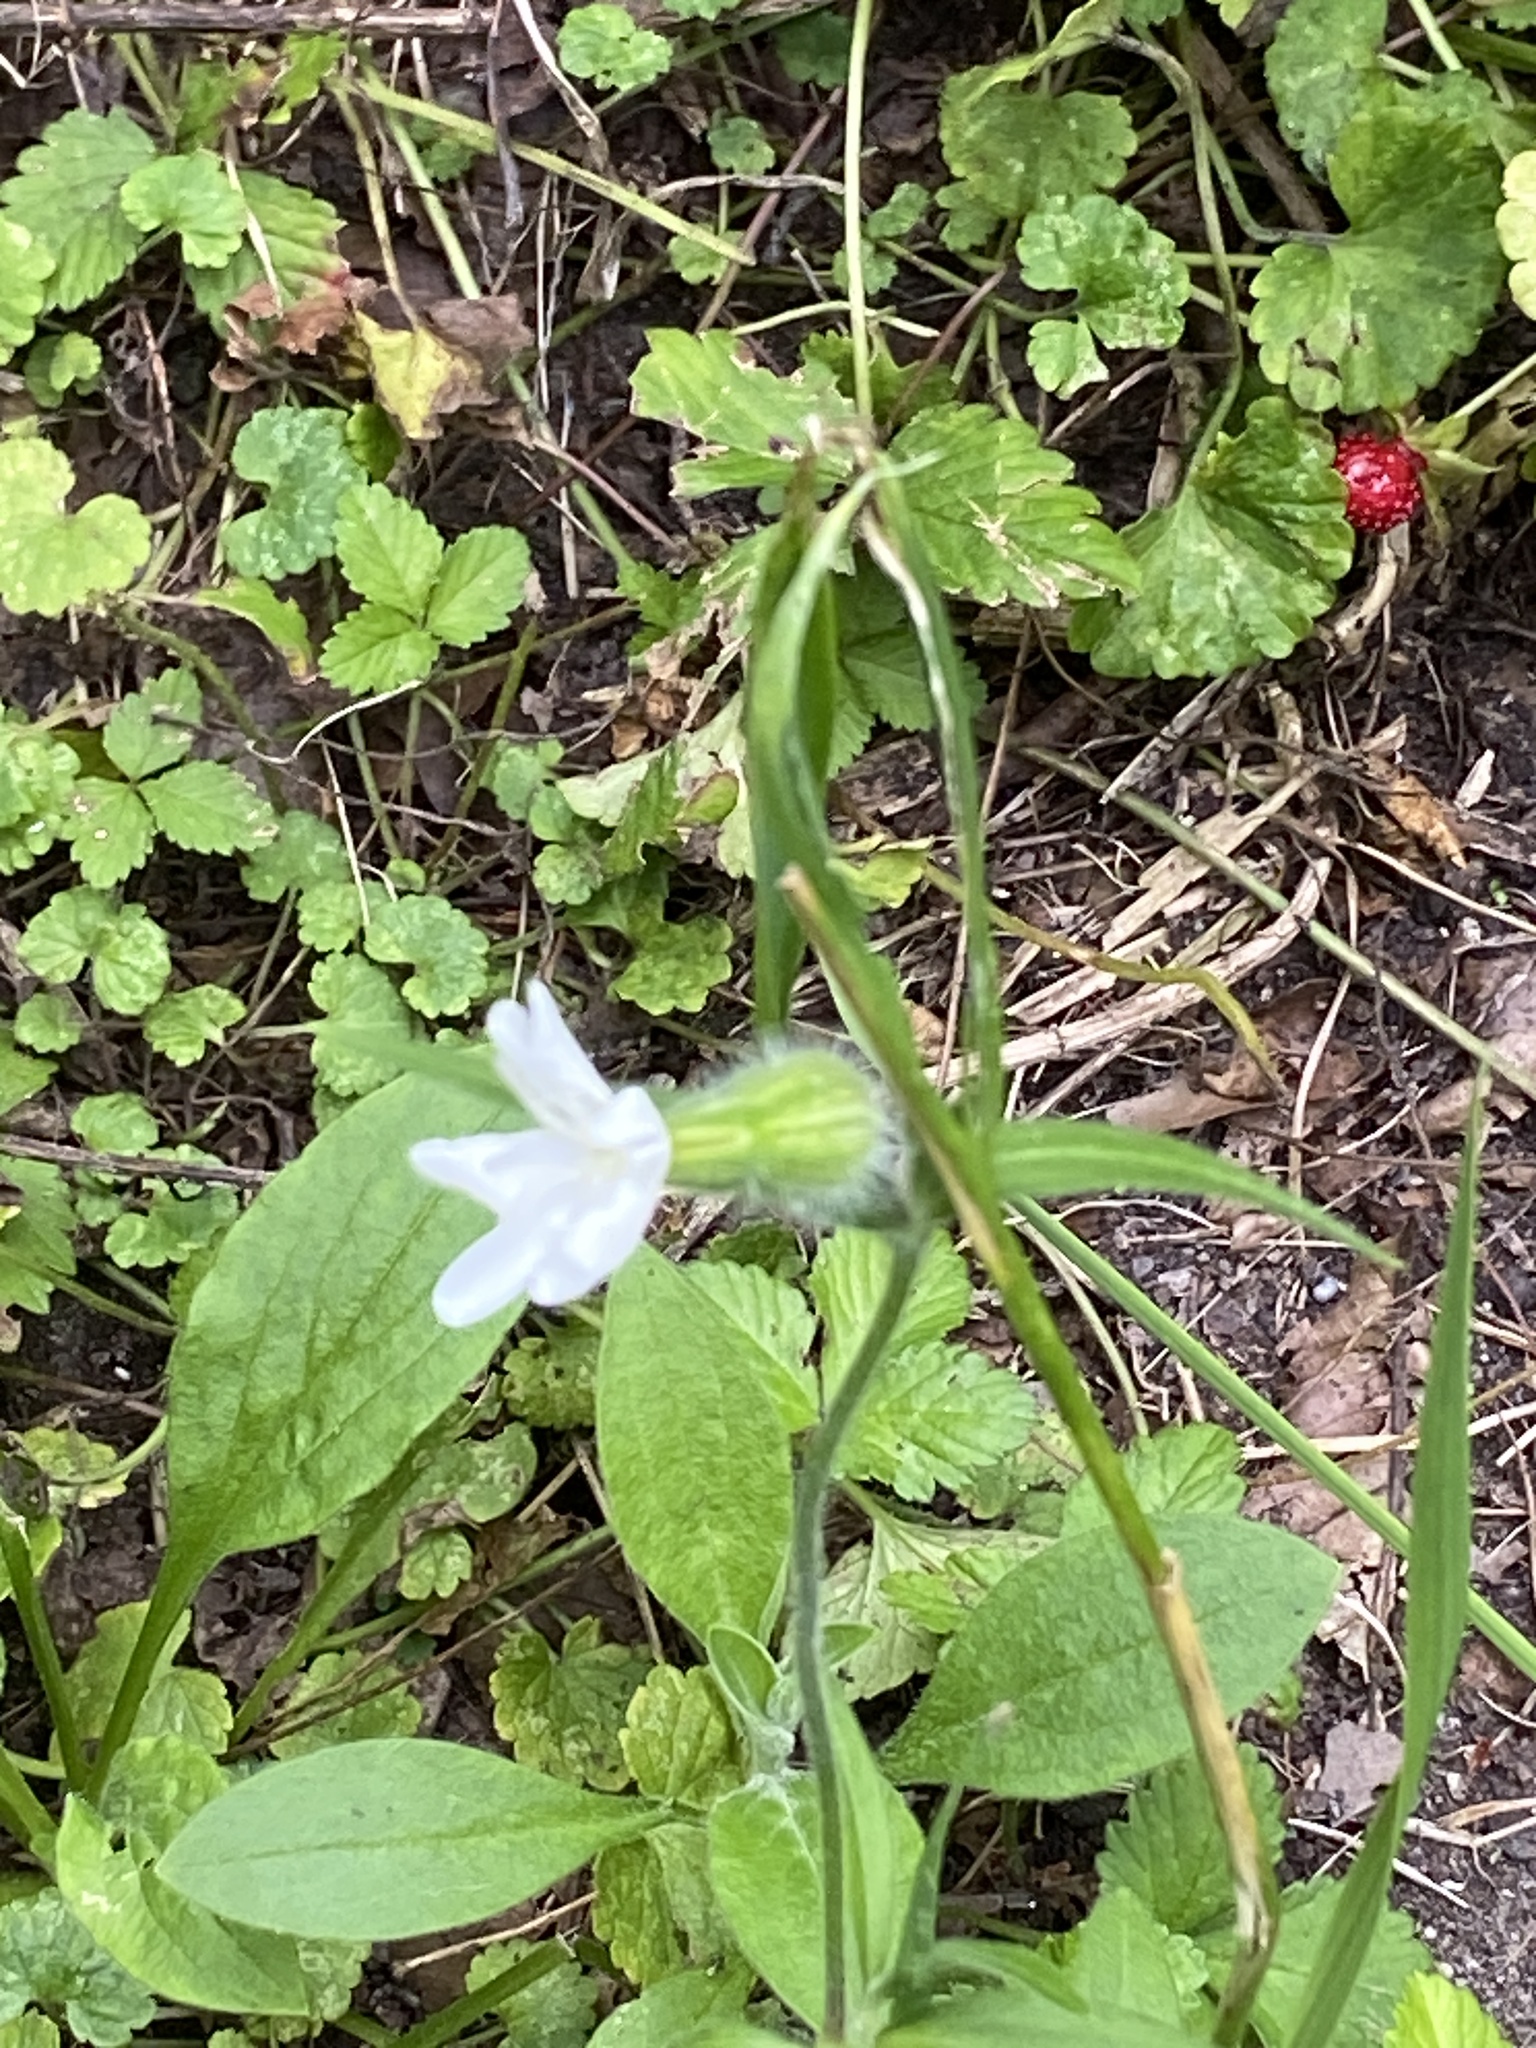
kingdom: Plantae
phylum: Tracheophyta
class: Magnoliopsida
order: Caryophyllales
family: Caryophyllaceae
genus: Silene
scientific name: Silene latifolia
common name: White campion
